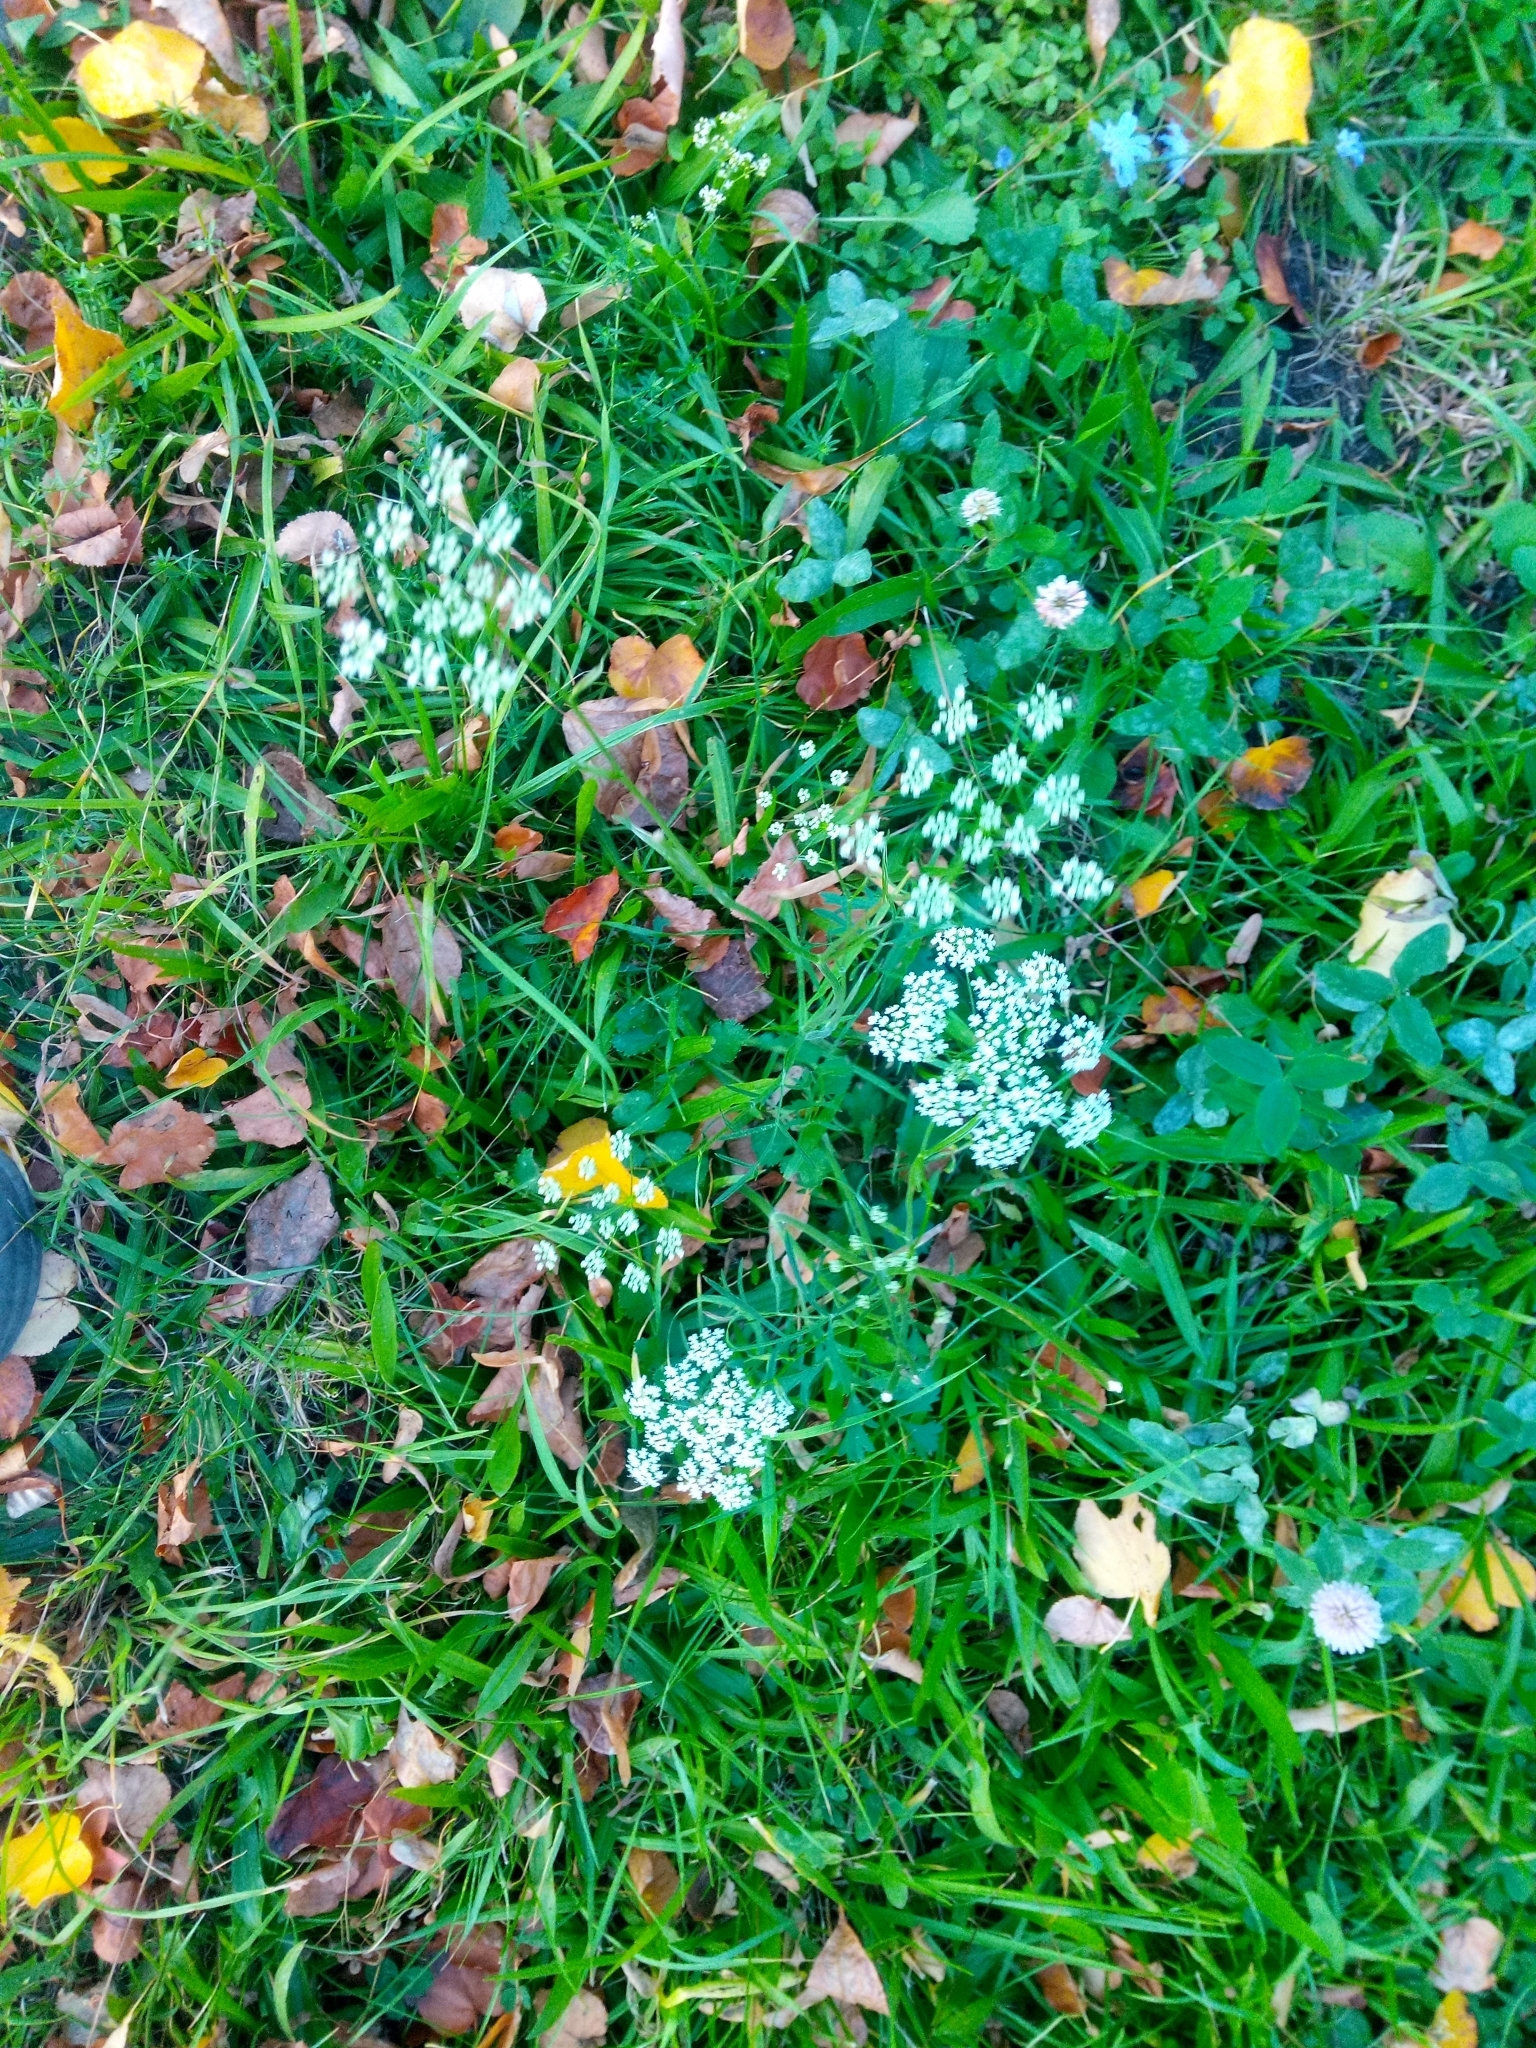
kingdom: Plantae
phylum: Tracheophyta
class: Magnoliopsida
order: Apiales
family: Apiaceae
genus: Pimpinella
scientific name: Pimpinella saxifraga
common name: Burnet-saxifrage
